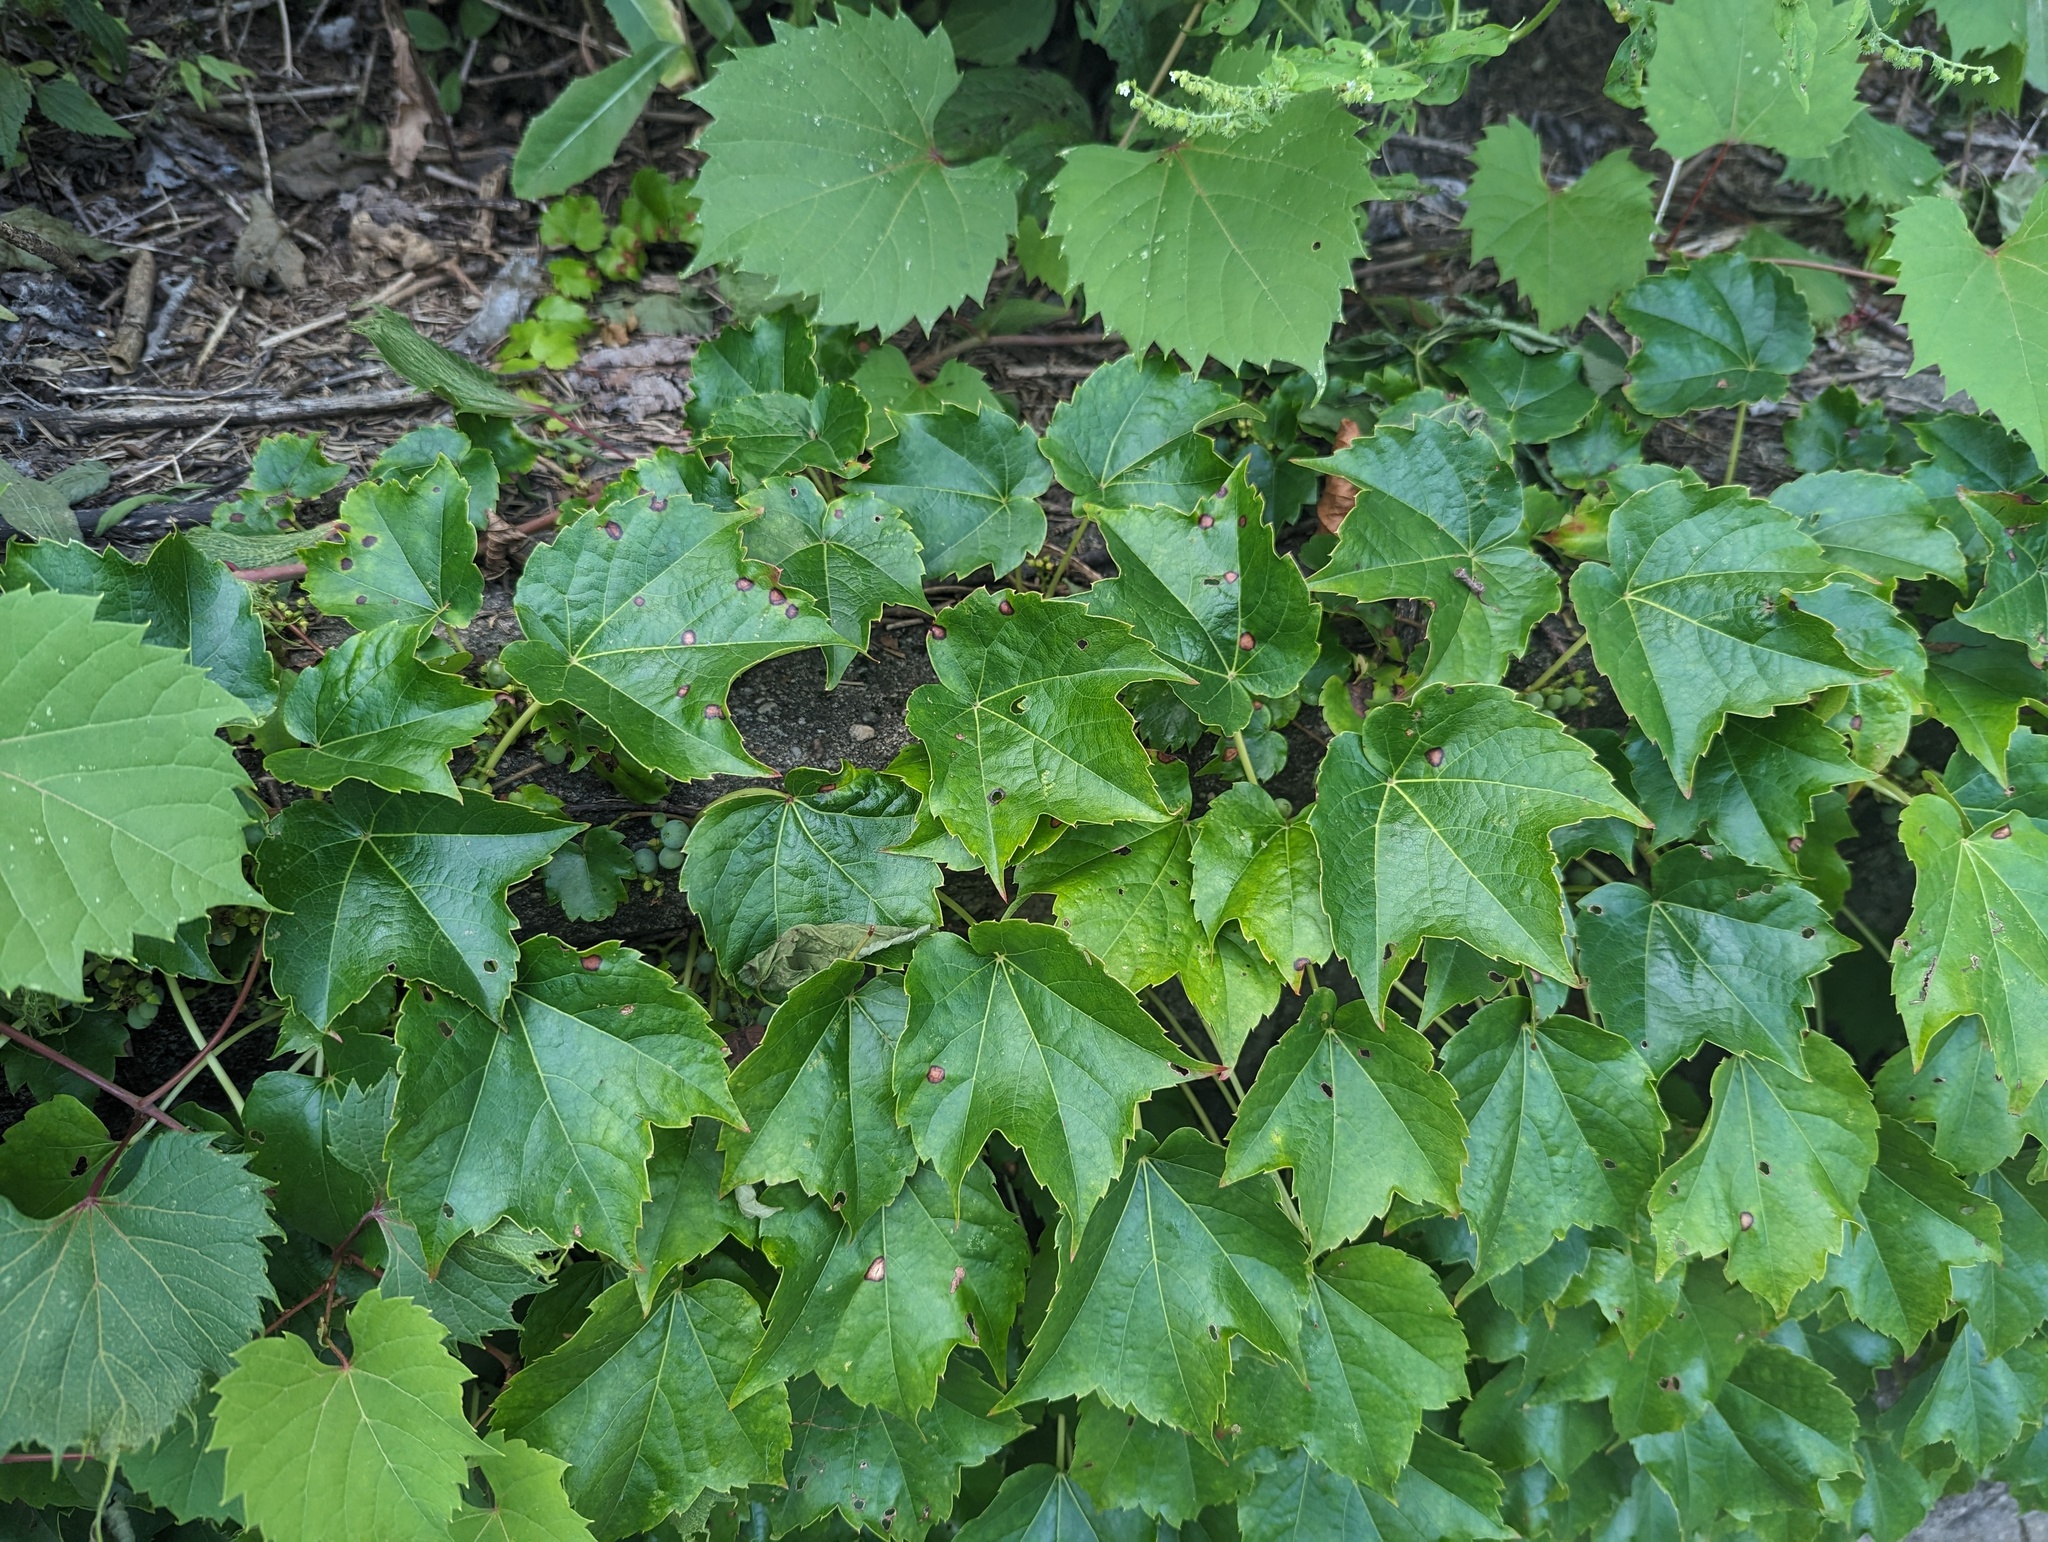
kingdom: Plantae
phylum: Tracheophyta
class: Magnoliopsida
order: Vitales
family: Vitaceae
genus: Parthenocissus
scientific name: Parthenocissus tricuspidata
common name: Boston ivy
